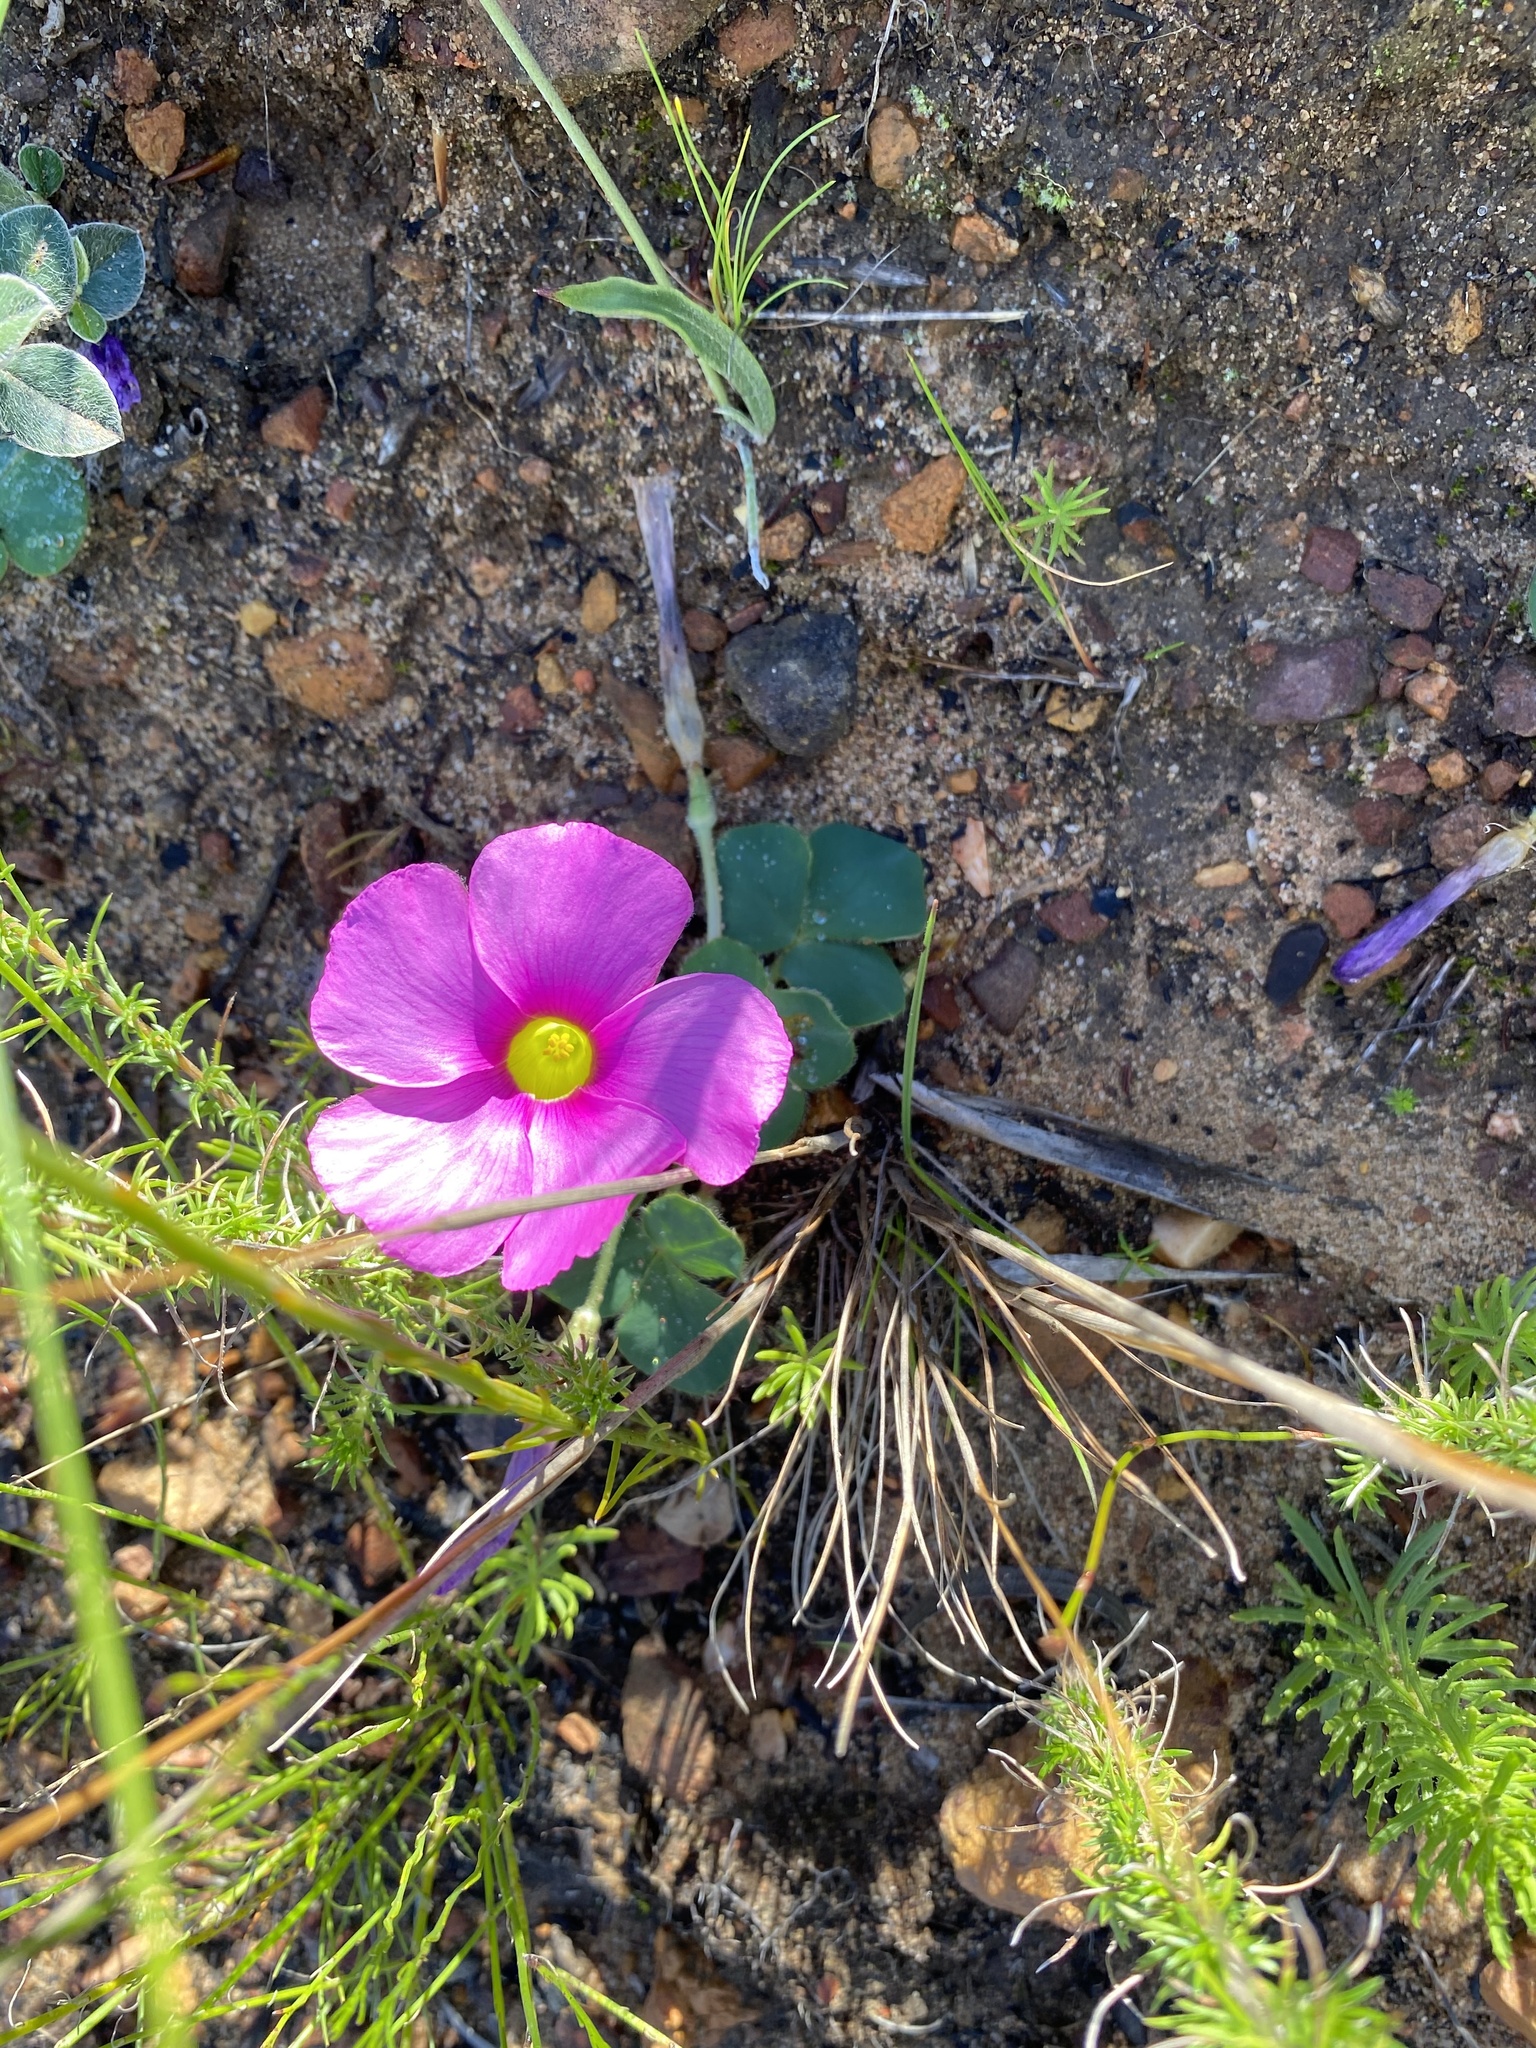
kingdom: Plantae
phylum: Tracheophyta
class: Magnoliopsida
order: Oxalidales
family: Oxalidaceae
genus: Oxalis
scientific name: Oxalis purpurea
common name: Purple woodsorrel
